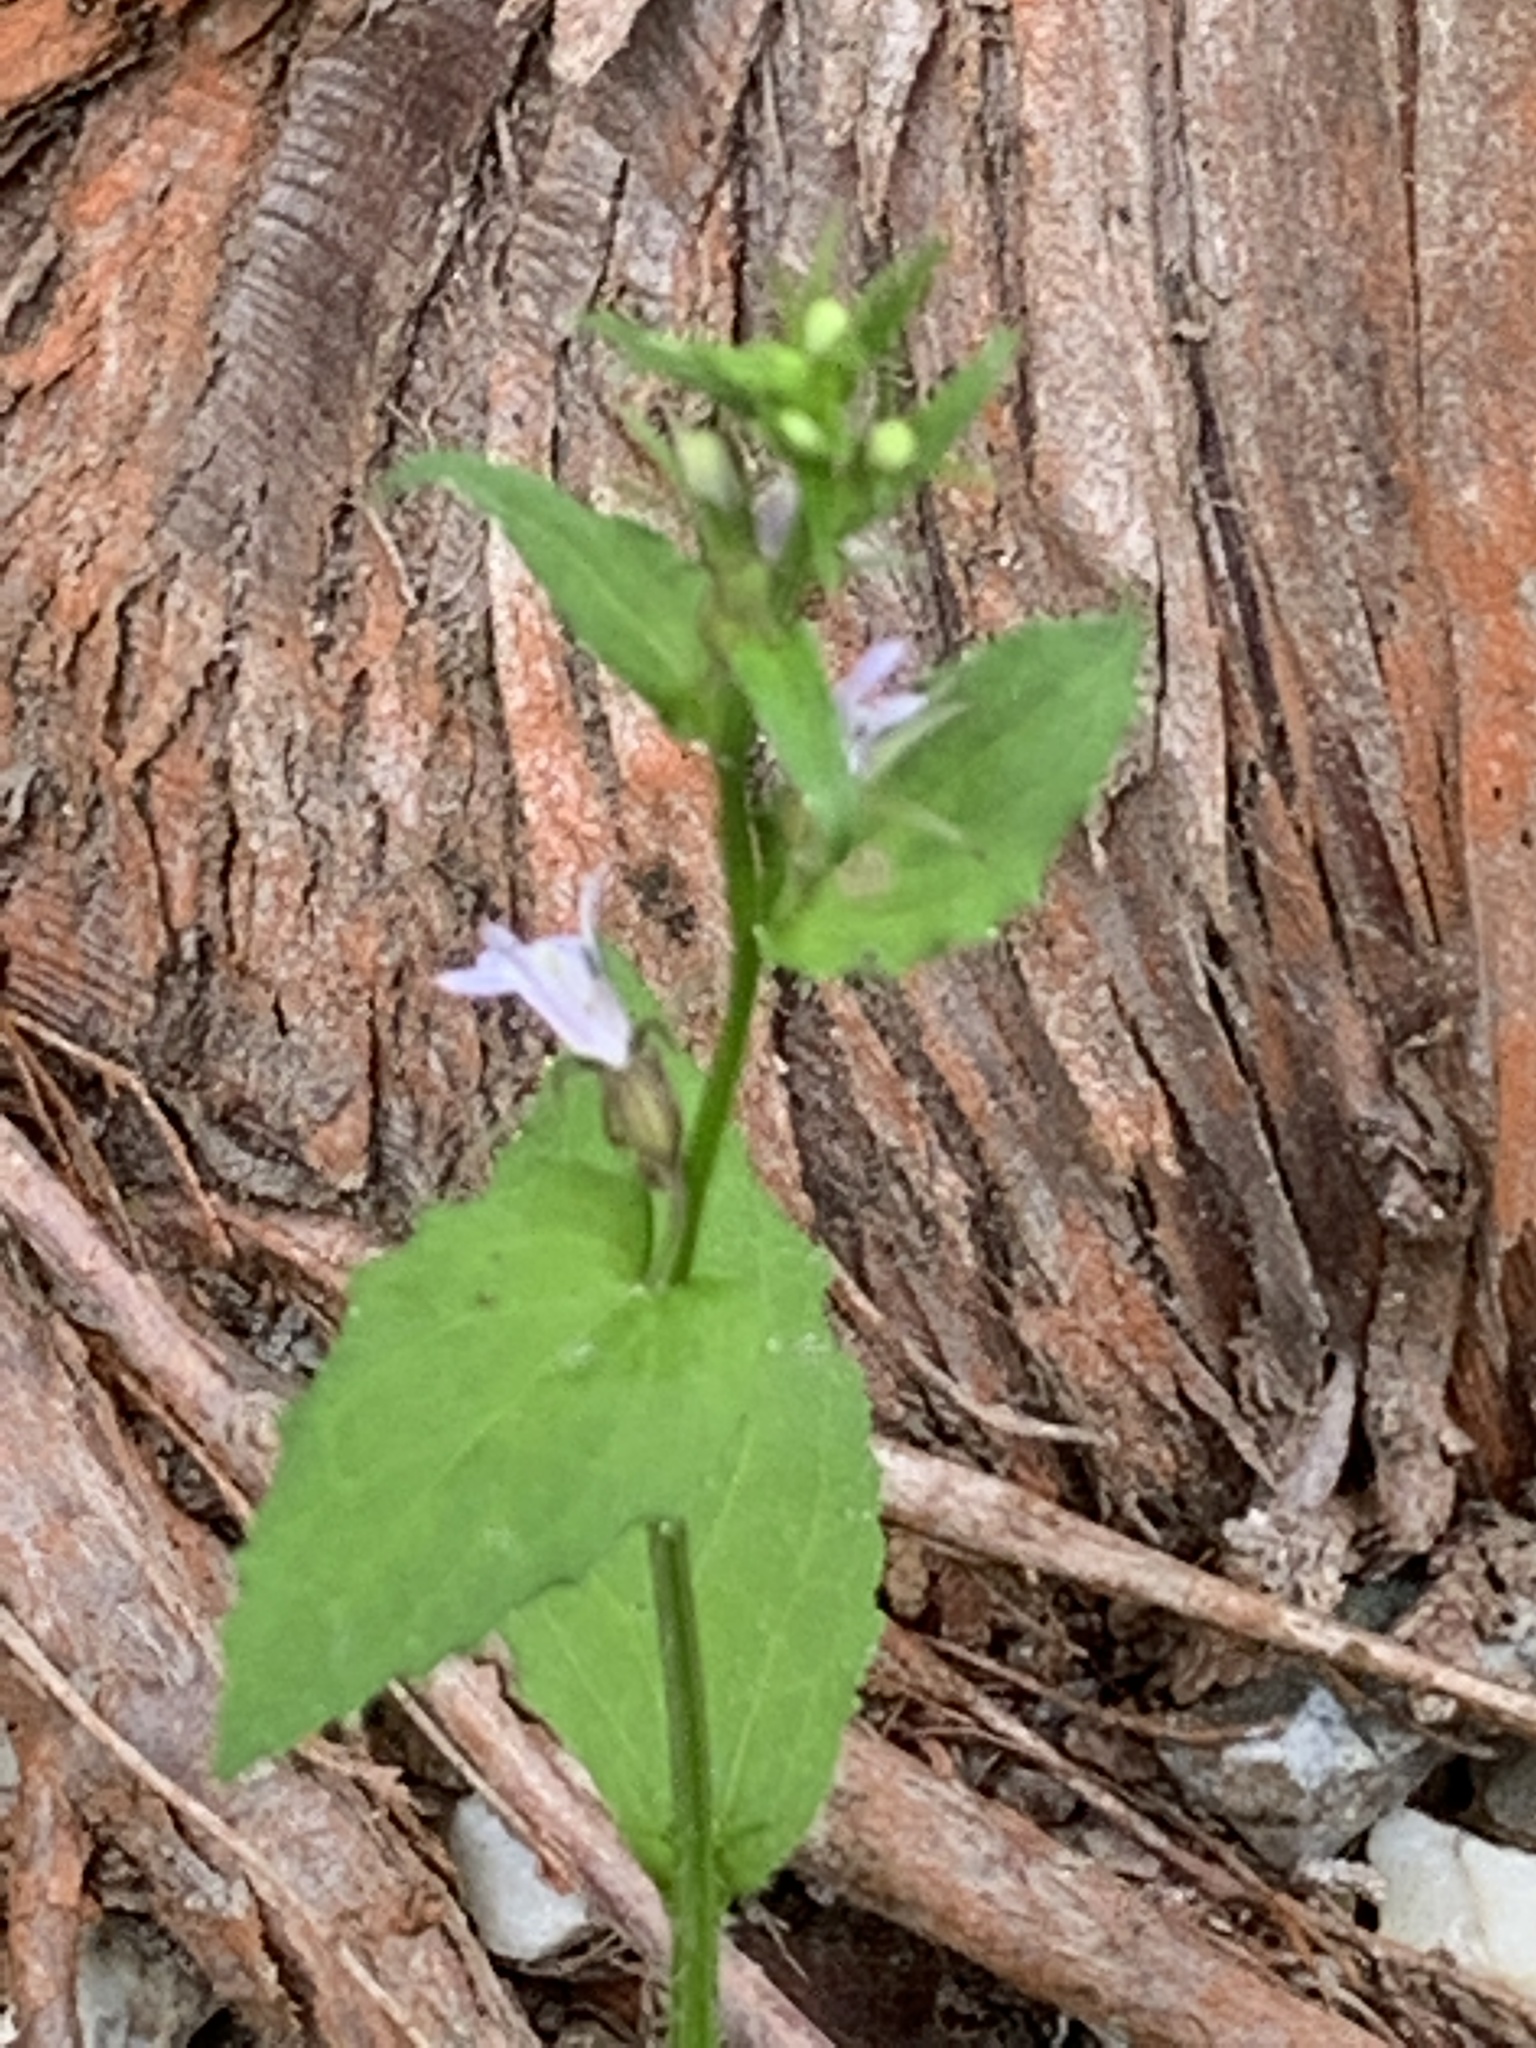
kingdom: Plantae
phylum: Tracheophyta
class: Magnoliopsida
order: Asterales
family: Campanulaceae
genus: Lobelia
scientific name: Lobelia inflata
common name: Indian tobacco
